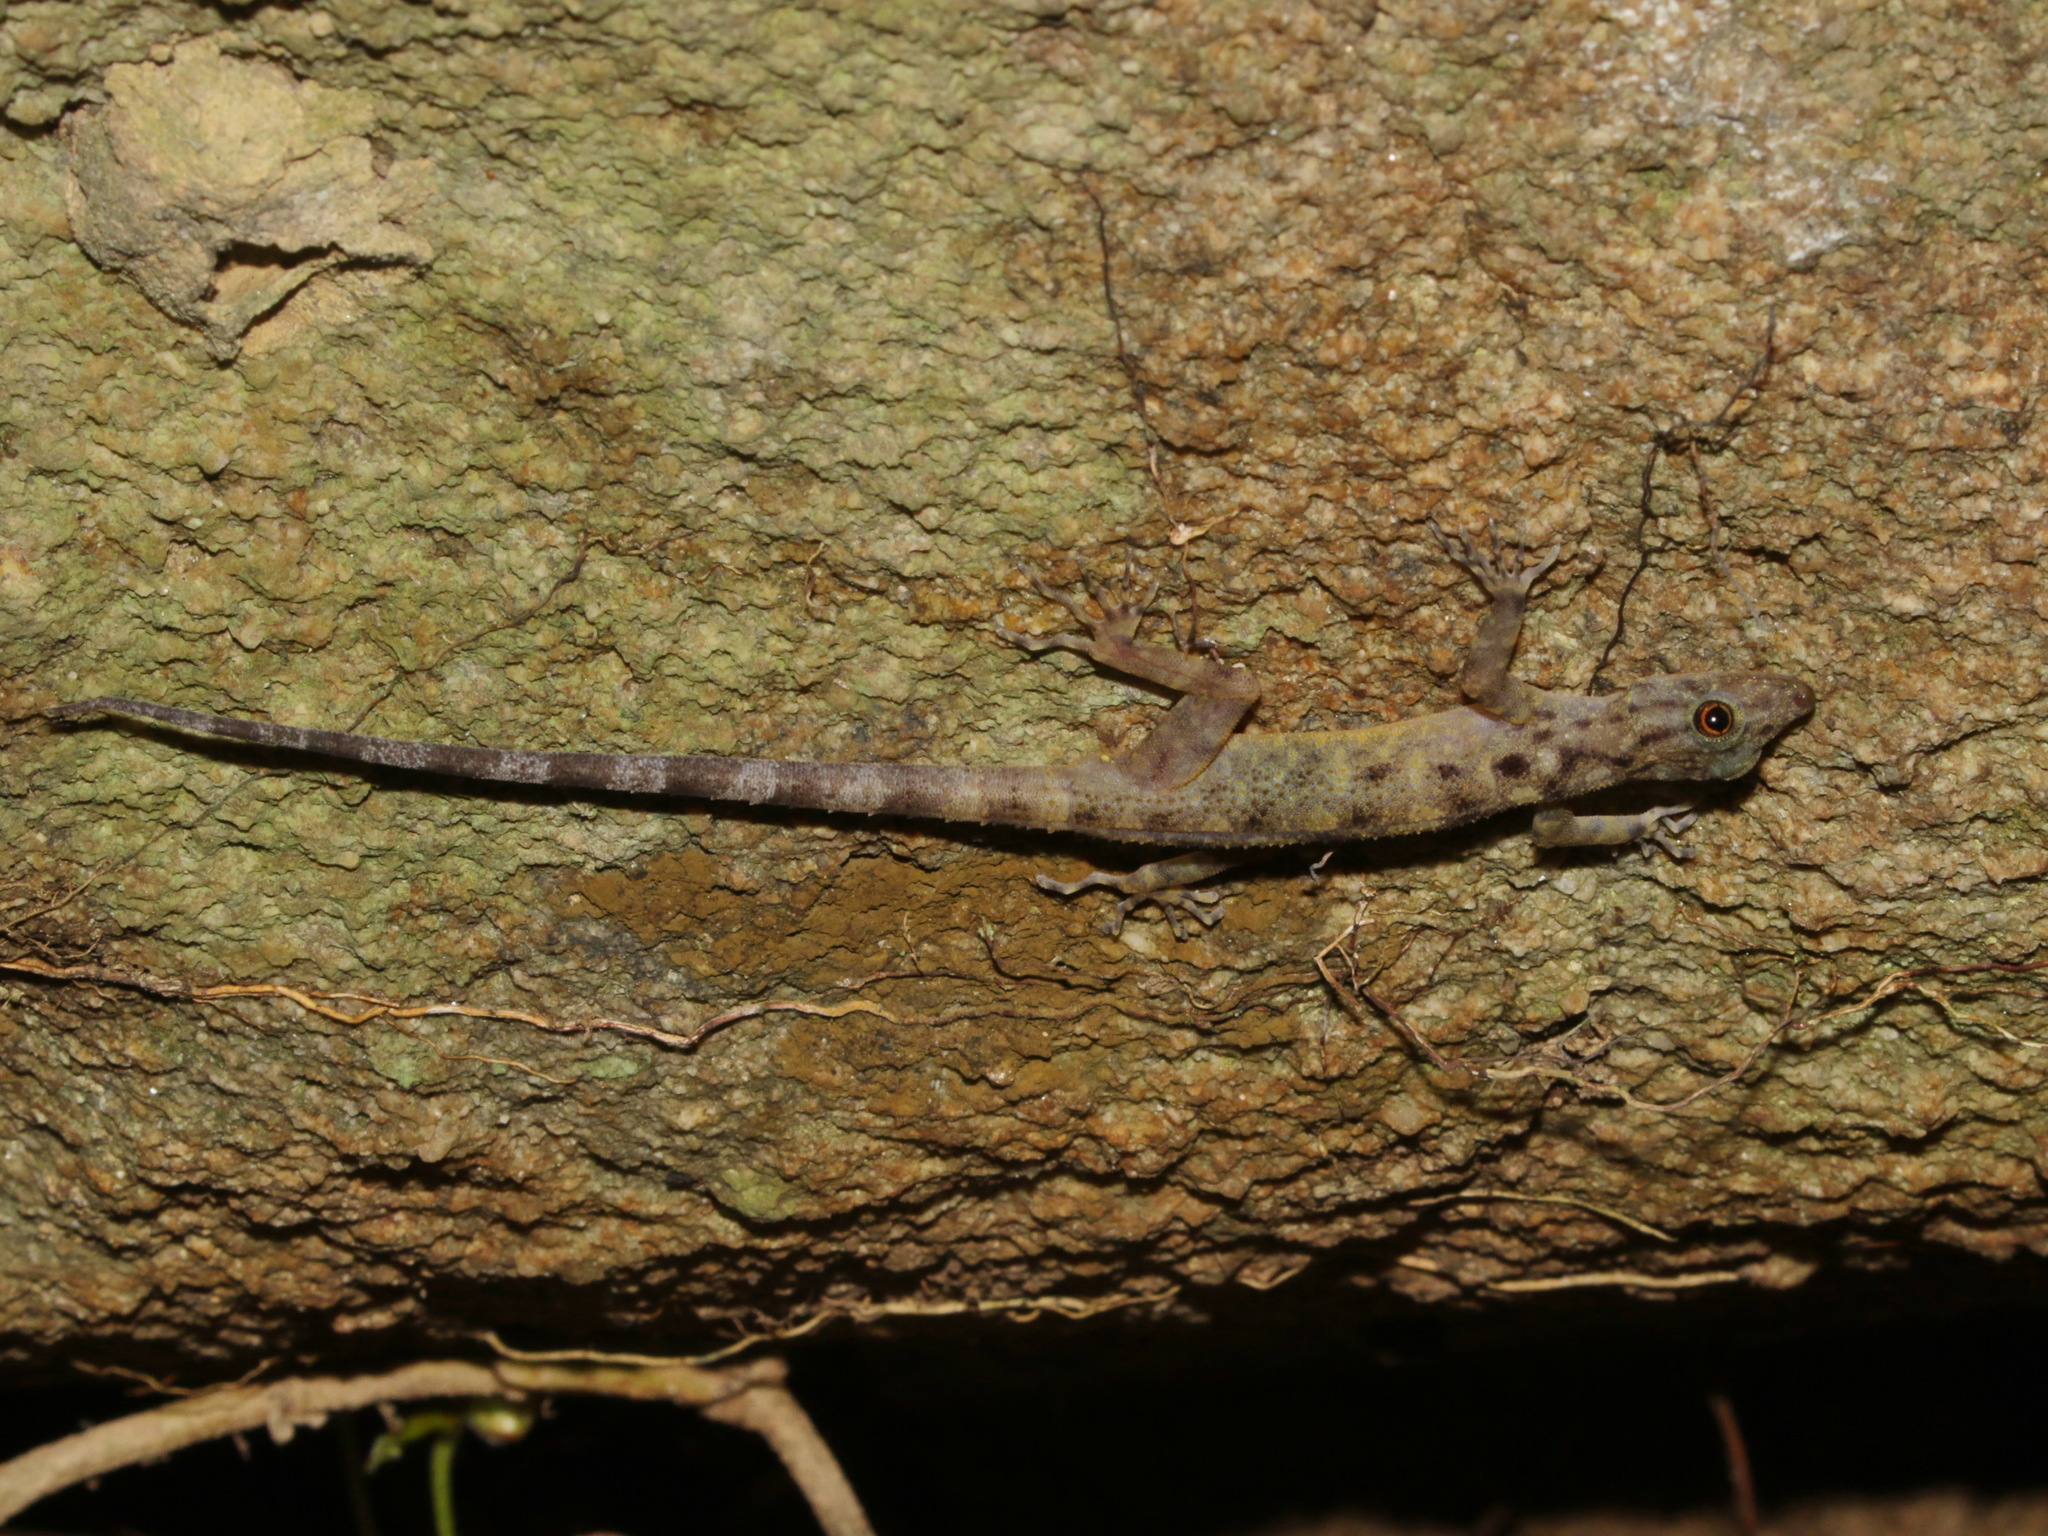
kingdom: Animalia
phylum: Chordata
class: Squamata
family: Gekkonidae
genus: Cnemaspis
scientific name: Cnemaspis narathiwatensis
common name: Narathiwat rock gecko
